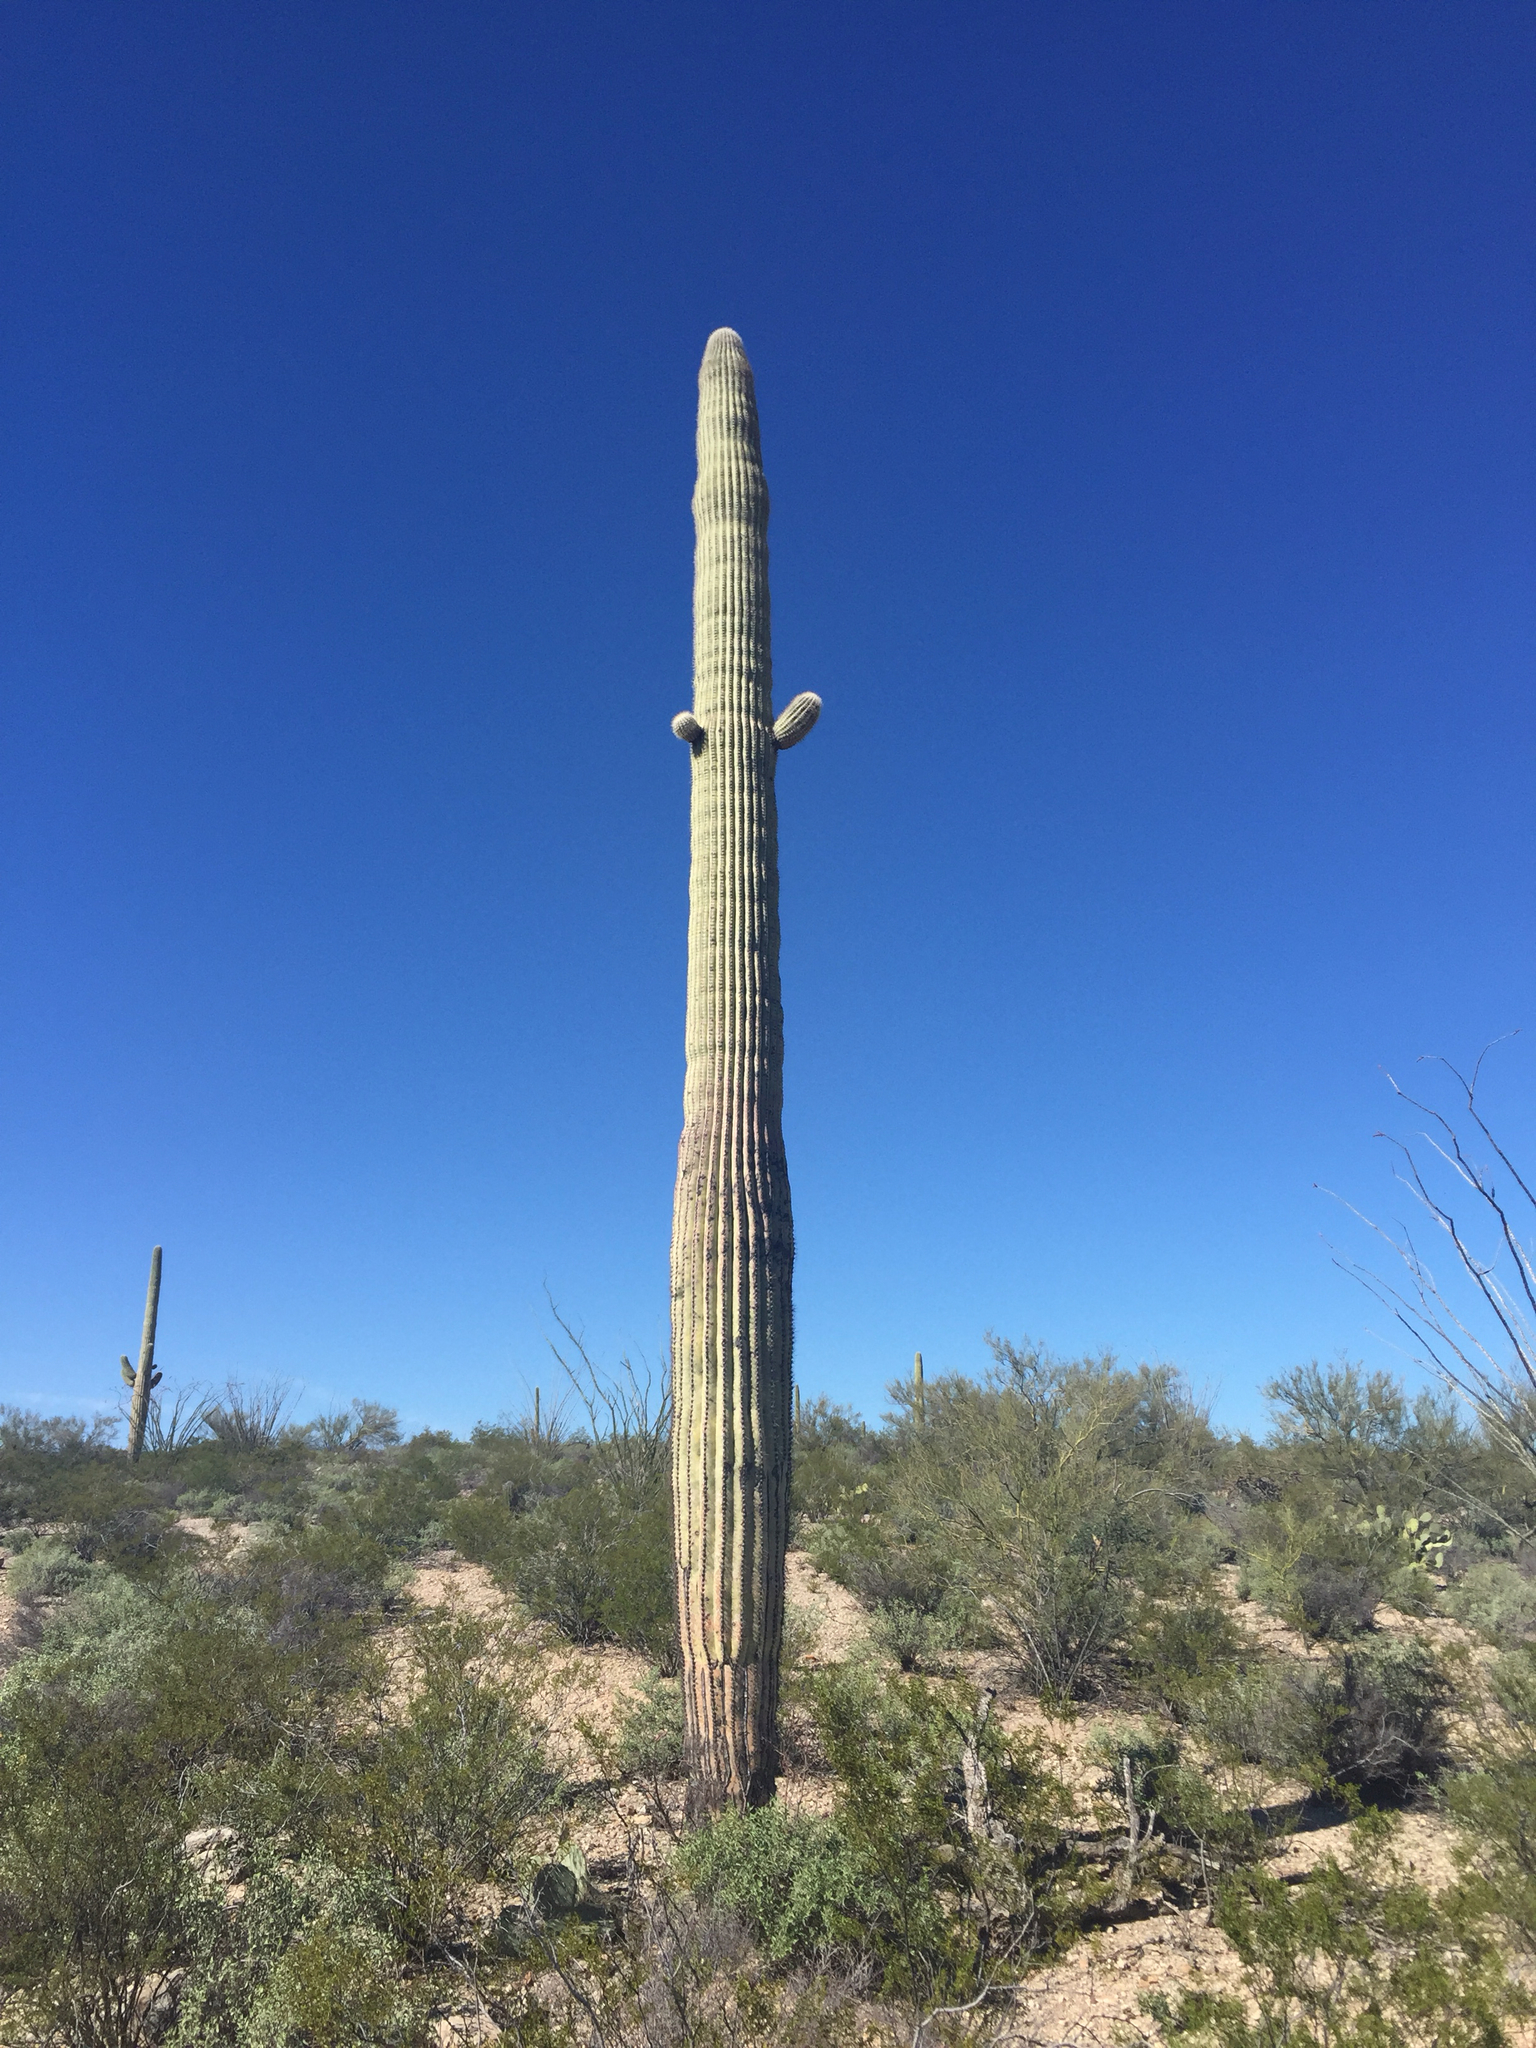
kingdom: Plantae
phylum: Tracheophyta
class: Magnoliopsida
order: Caryophyllales
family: Cactaceae
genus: Carnegiea
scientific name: Carnegiea gigantea
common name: Saguaro
